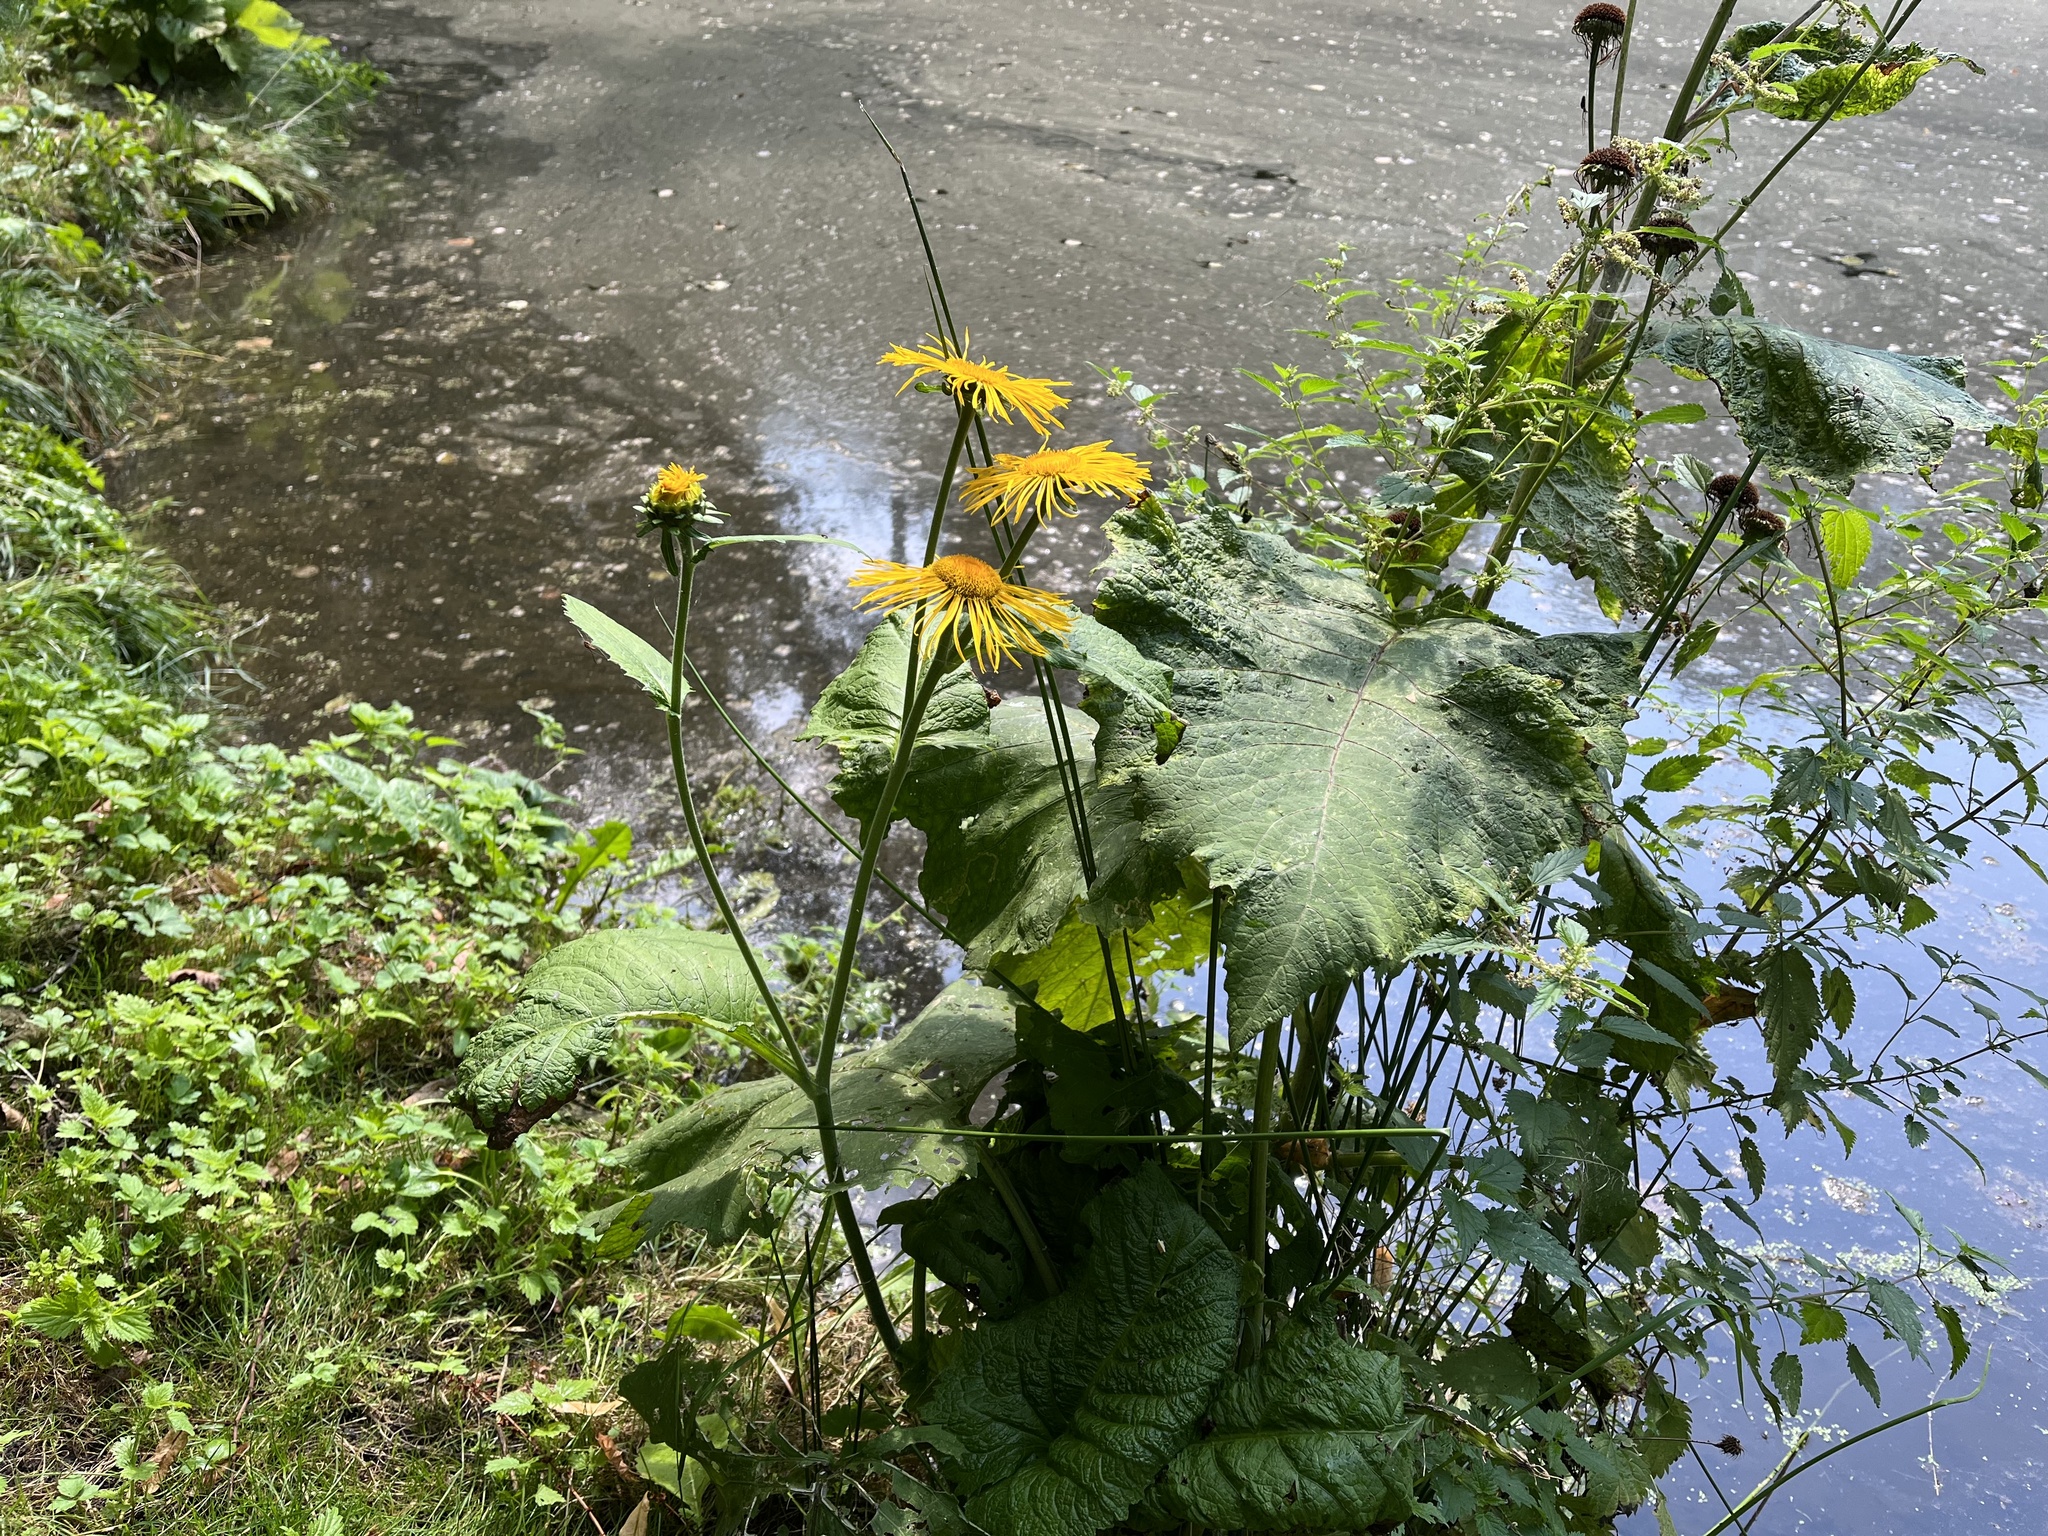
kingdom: Plantae
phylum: Tracheophyta
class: Magnoliopsida
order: Asterales
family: Asteraceae
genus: Telekia
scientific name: Telekia speciosa
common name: Yellow oxeye
